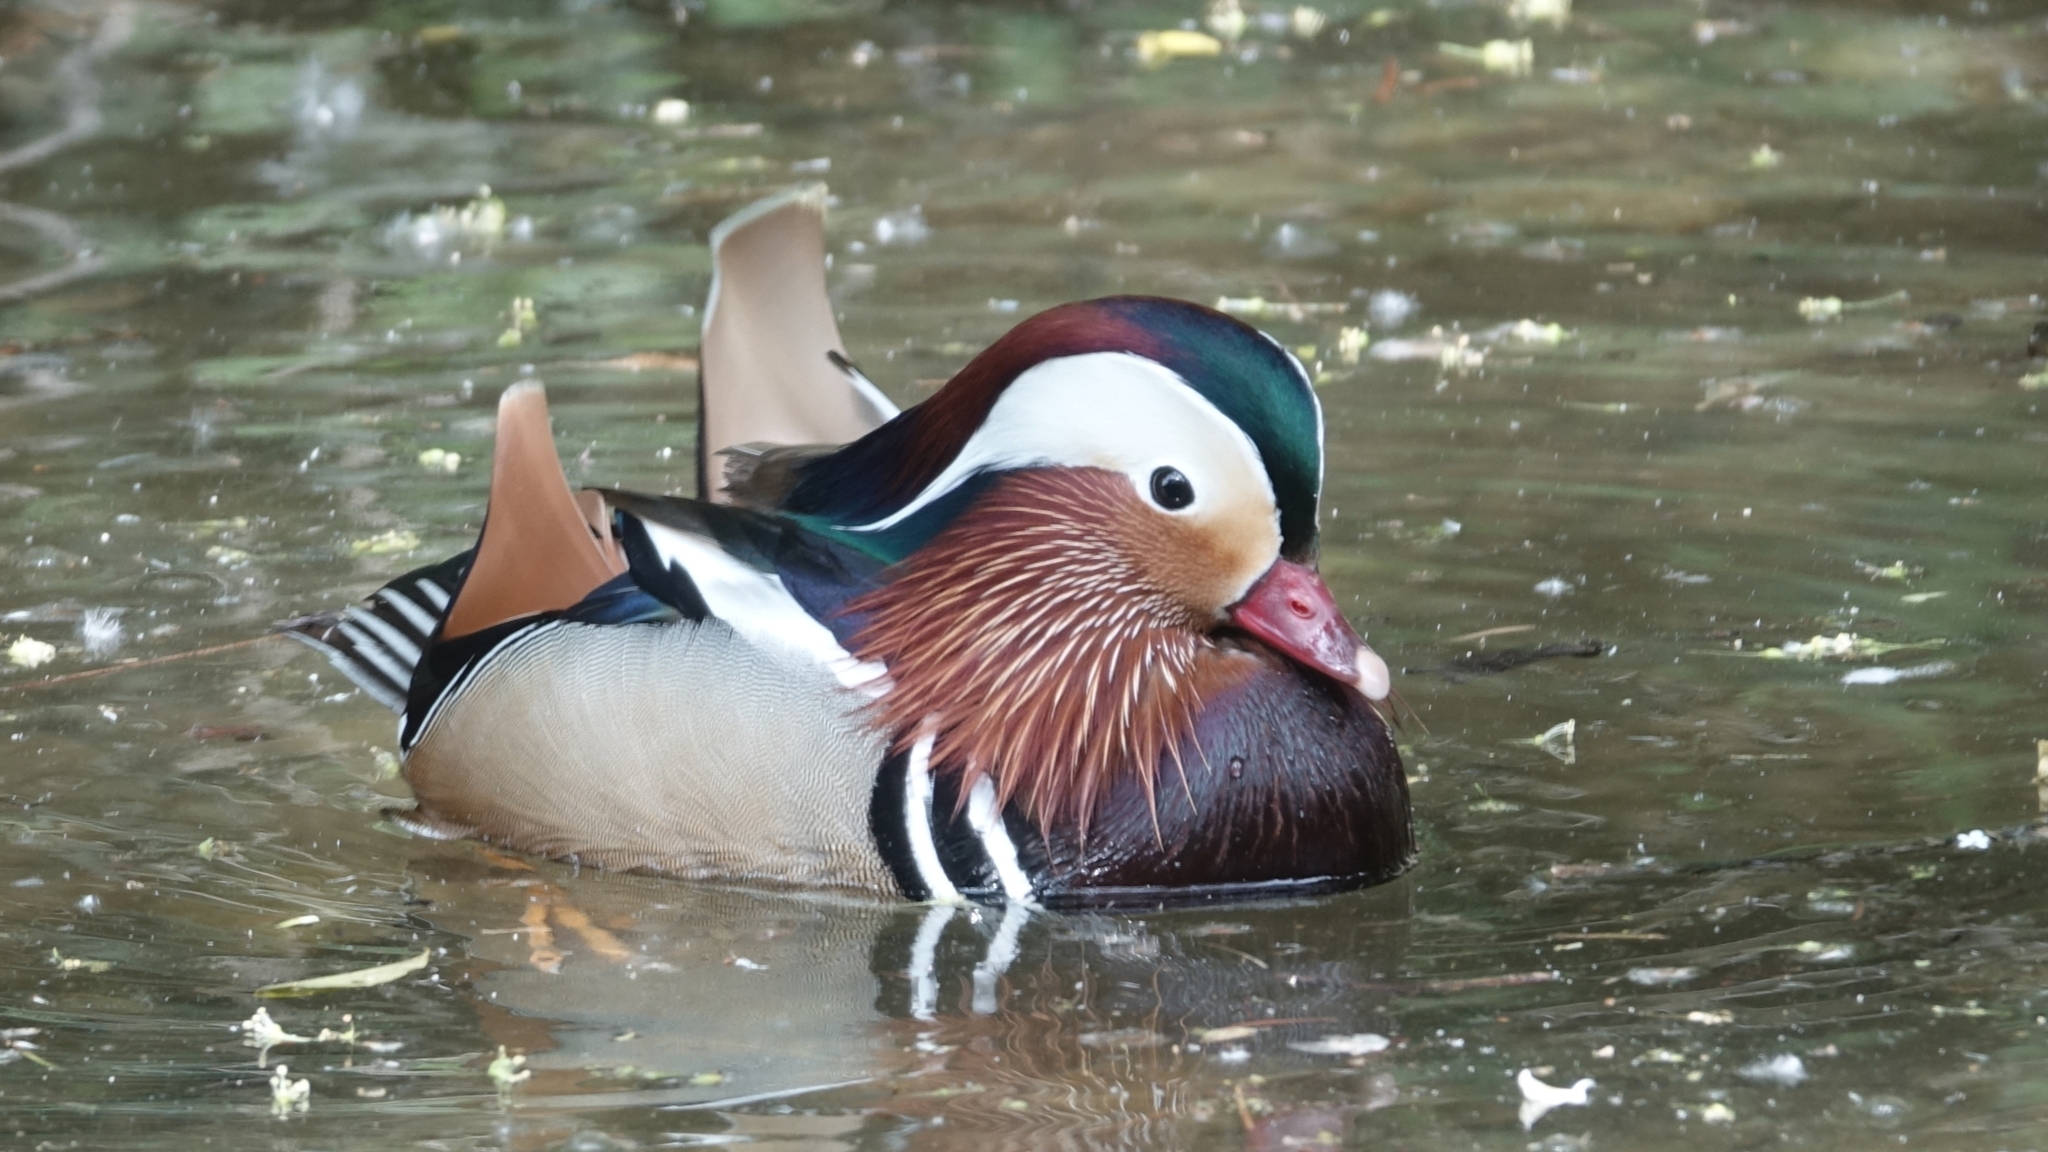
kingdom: Animalia
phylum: Chordata
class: Aves
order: Anseriformes
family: Anatidae
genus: Aix
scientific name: Aix galericulata
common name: Mandarin duck
